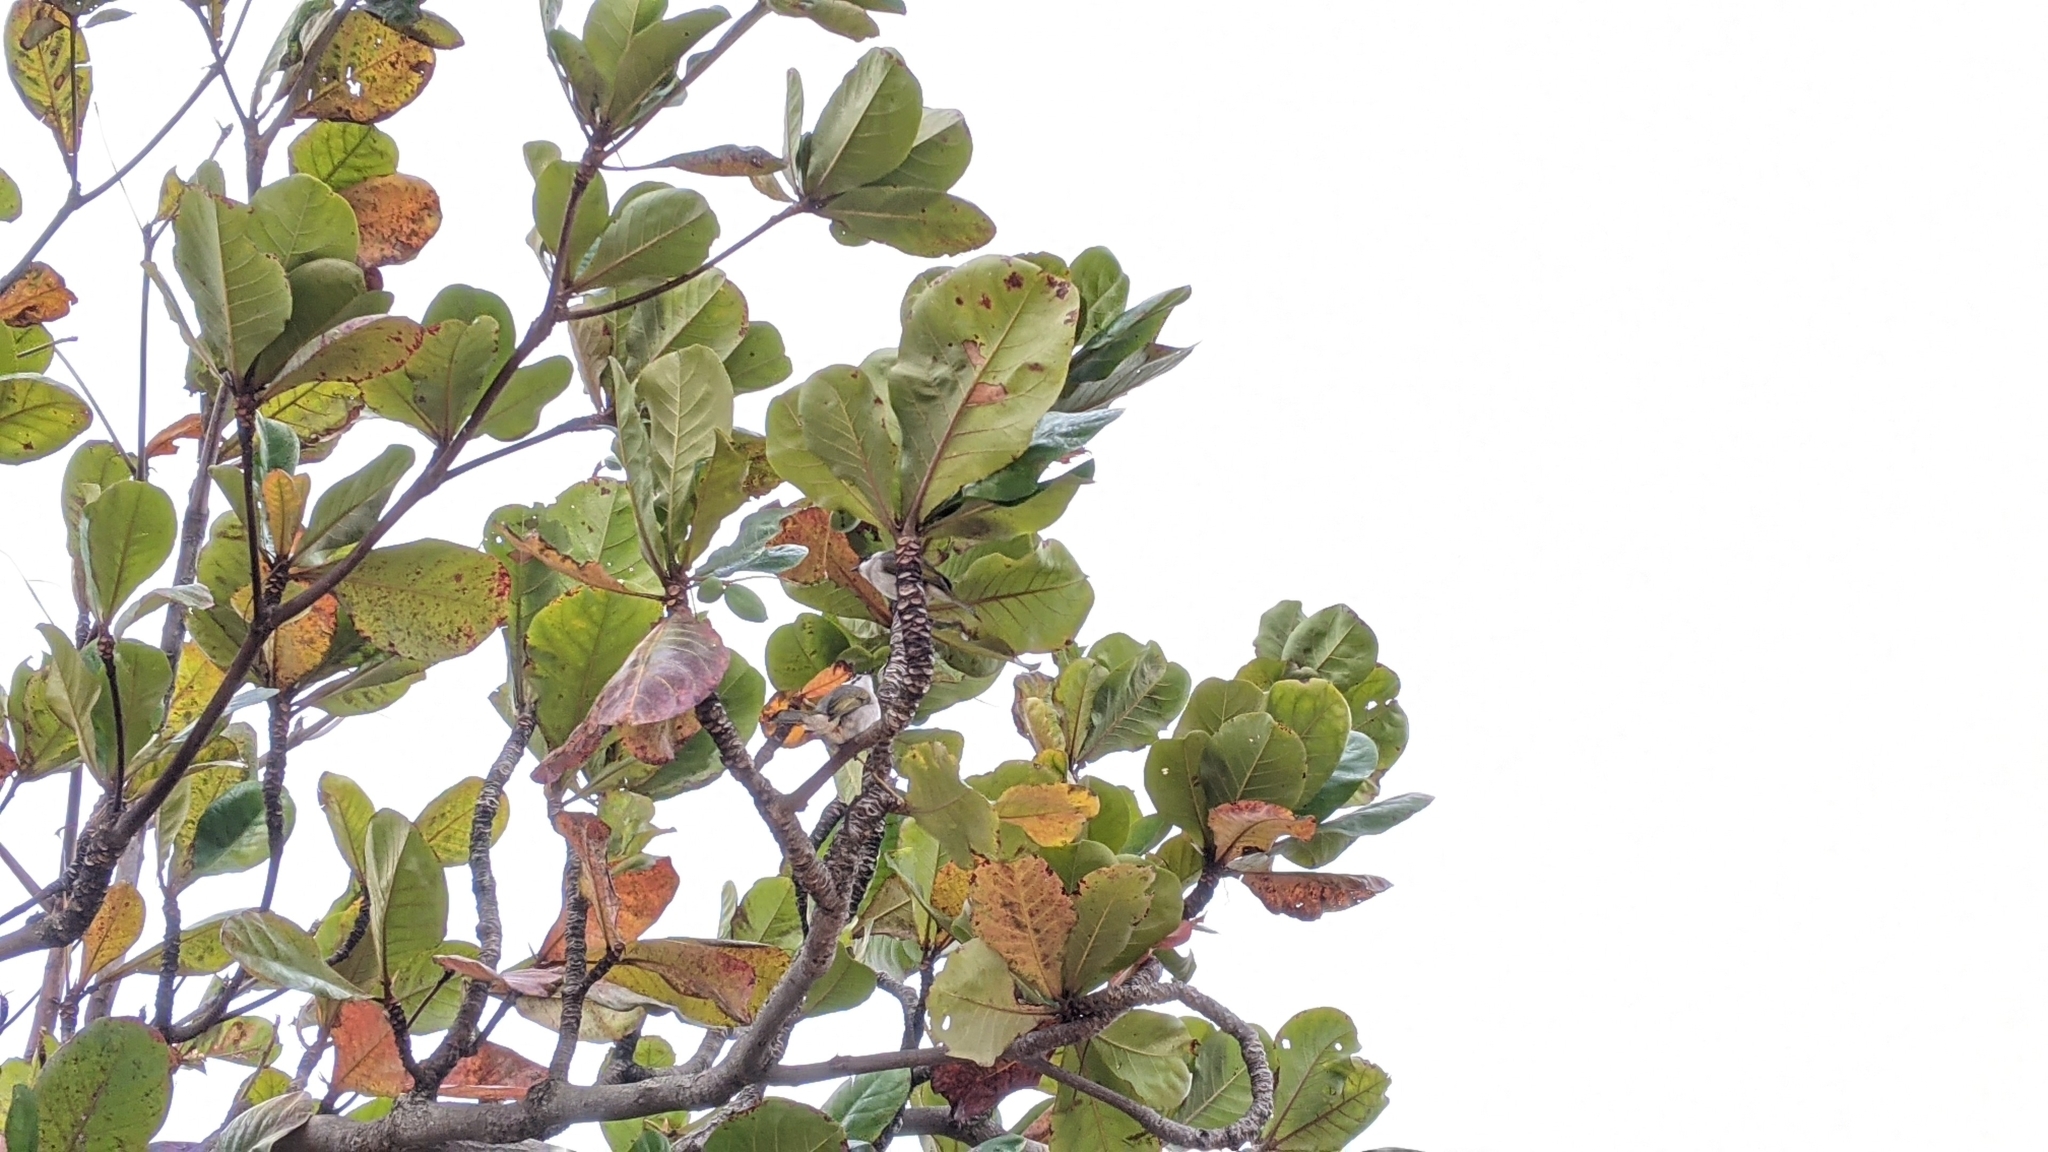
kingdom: Animalia
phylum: Chordata
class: Aves
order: Passeriformes
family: Pycnonotidae
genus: Pycnonotus
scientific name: Pycnonotus taivanus
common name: Styan's bulbul
